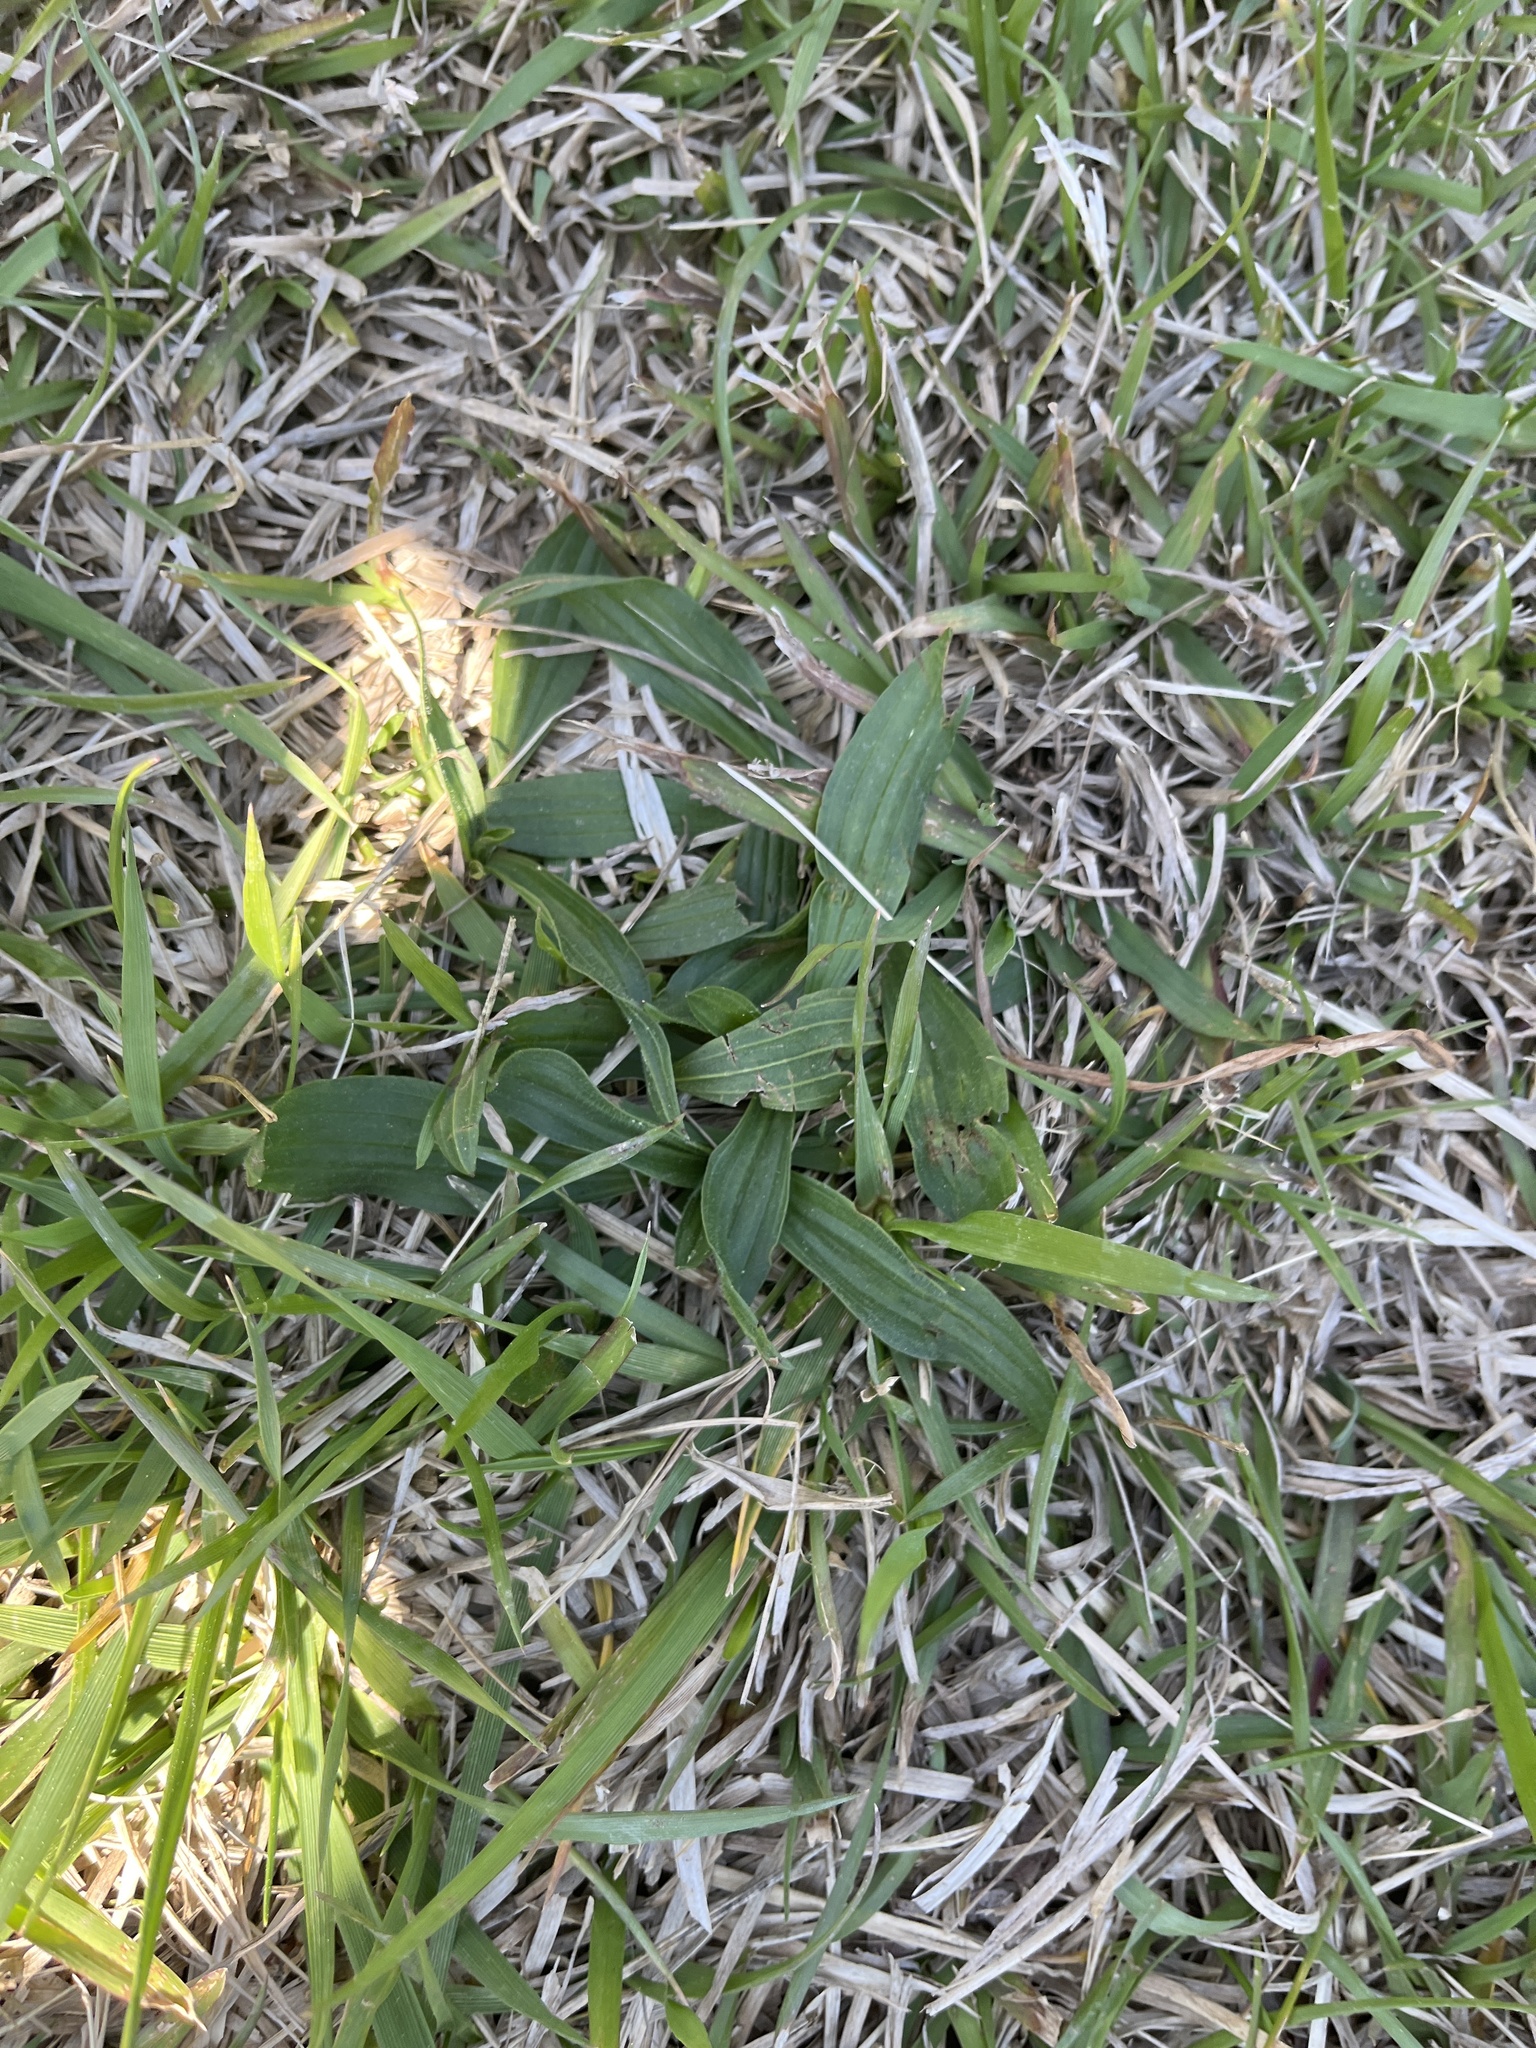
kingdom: Plantae
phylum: Tracheophyta
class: Magnoliopsida
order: Lamiales
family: Plantaginaceae
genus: Plantago
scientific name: Plantago lanceolata
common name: Ribwort plantain
